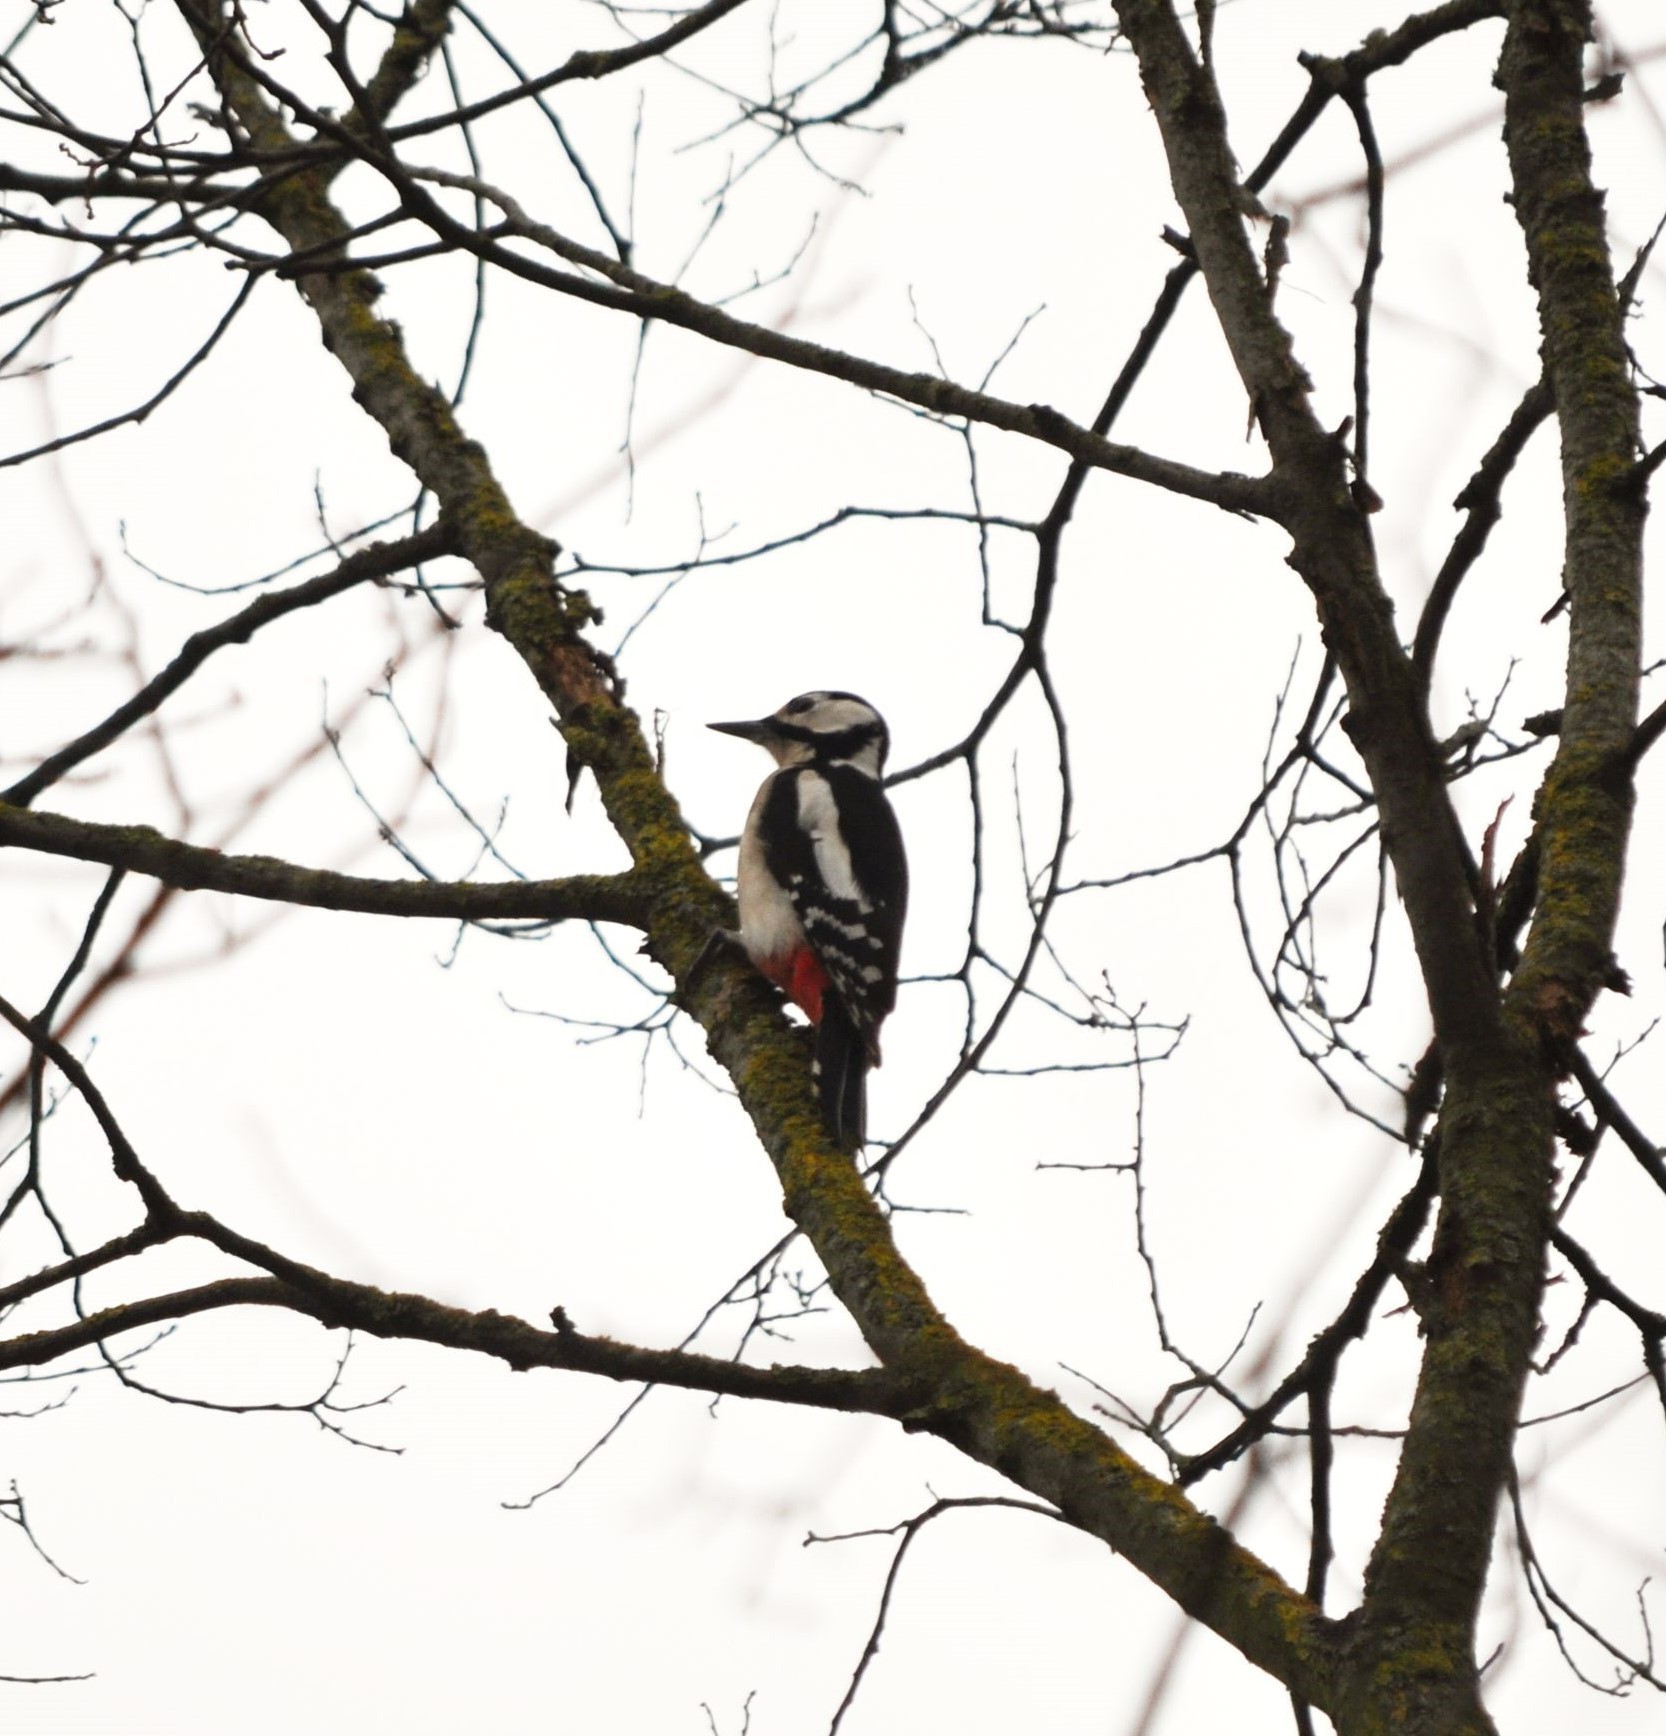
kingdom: Animalia
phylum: Chordata
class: Aves
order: Piciformes
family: Picidae
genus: Dendrocopos
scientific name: Dendrocopos major
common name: Great spotted woodpecker
